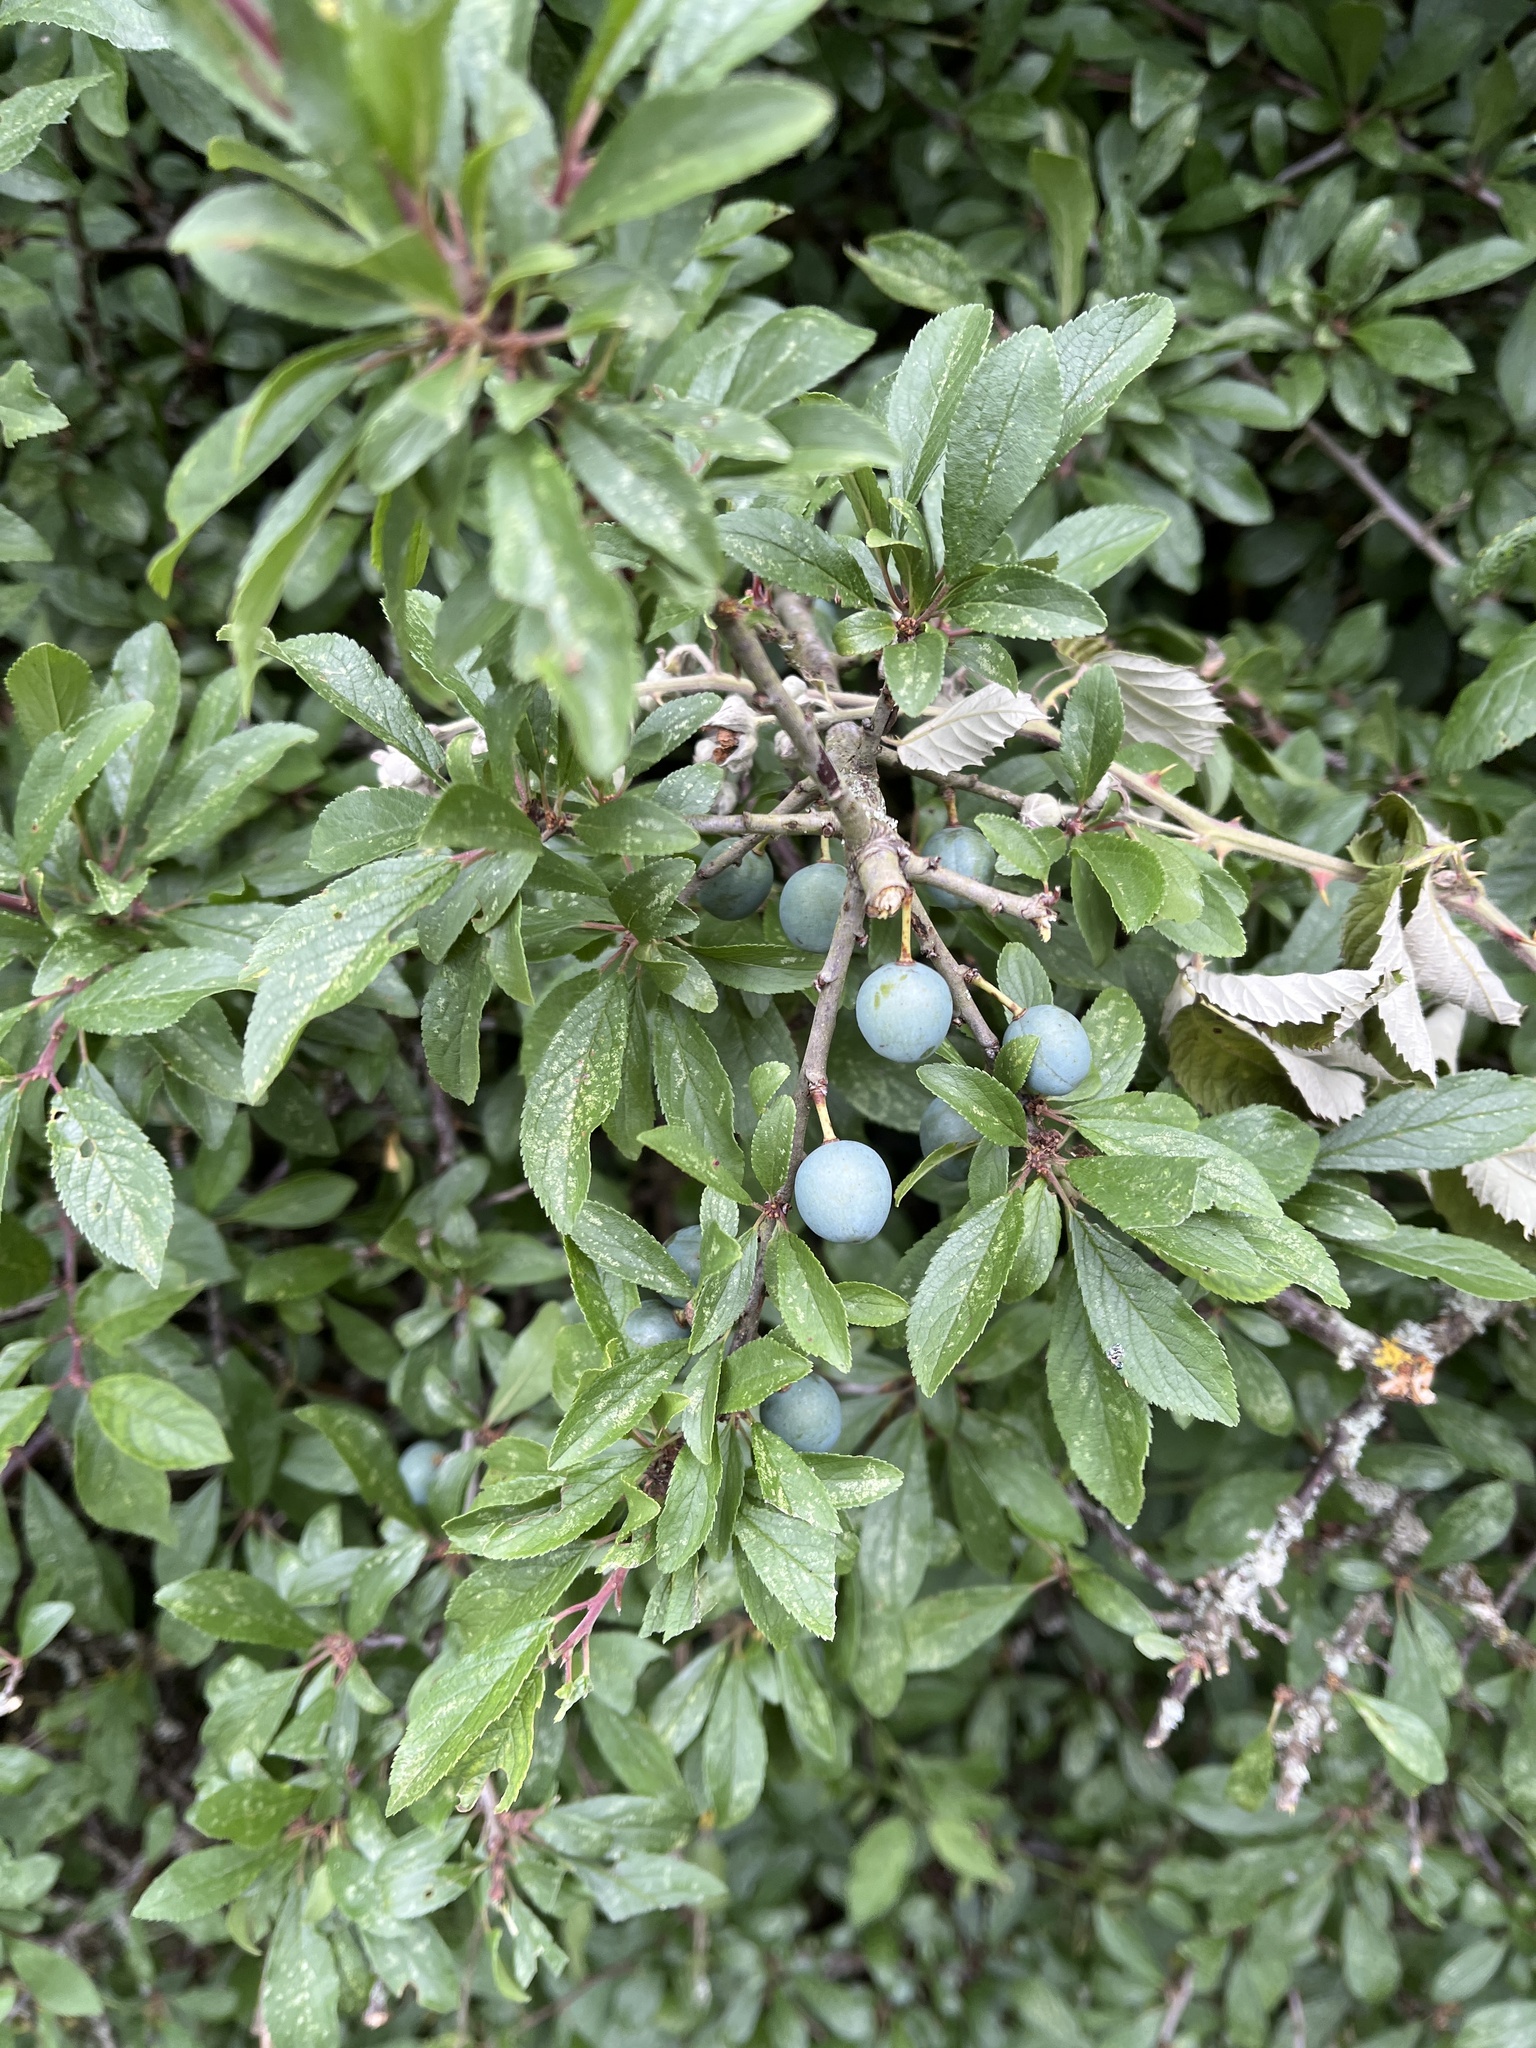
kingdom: Plantae
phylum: Tracheophyta
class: Magnoliopsida
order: Rosales
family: Rosaceae
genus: Prunus
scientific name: Prunus spinosa
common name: Blackthorn
